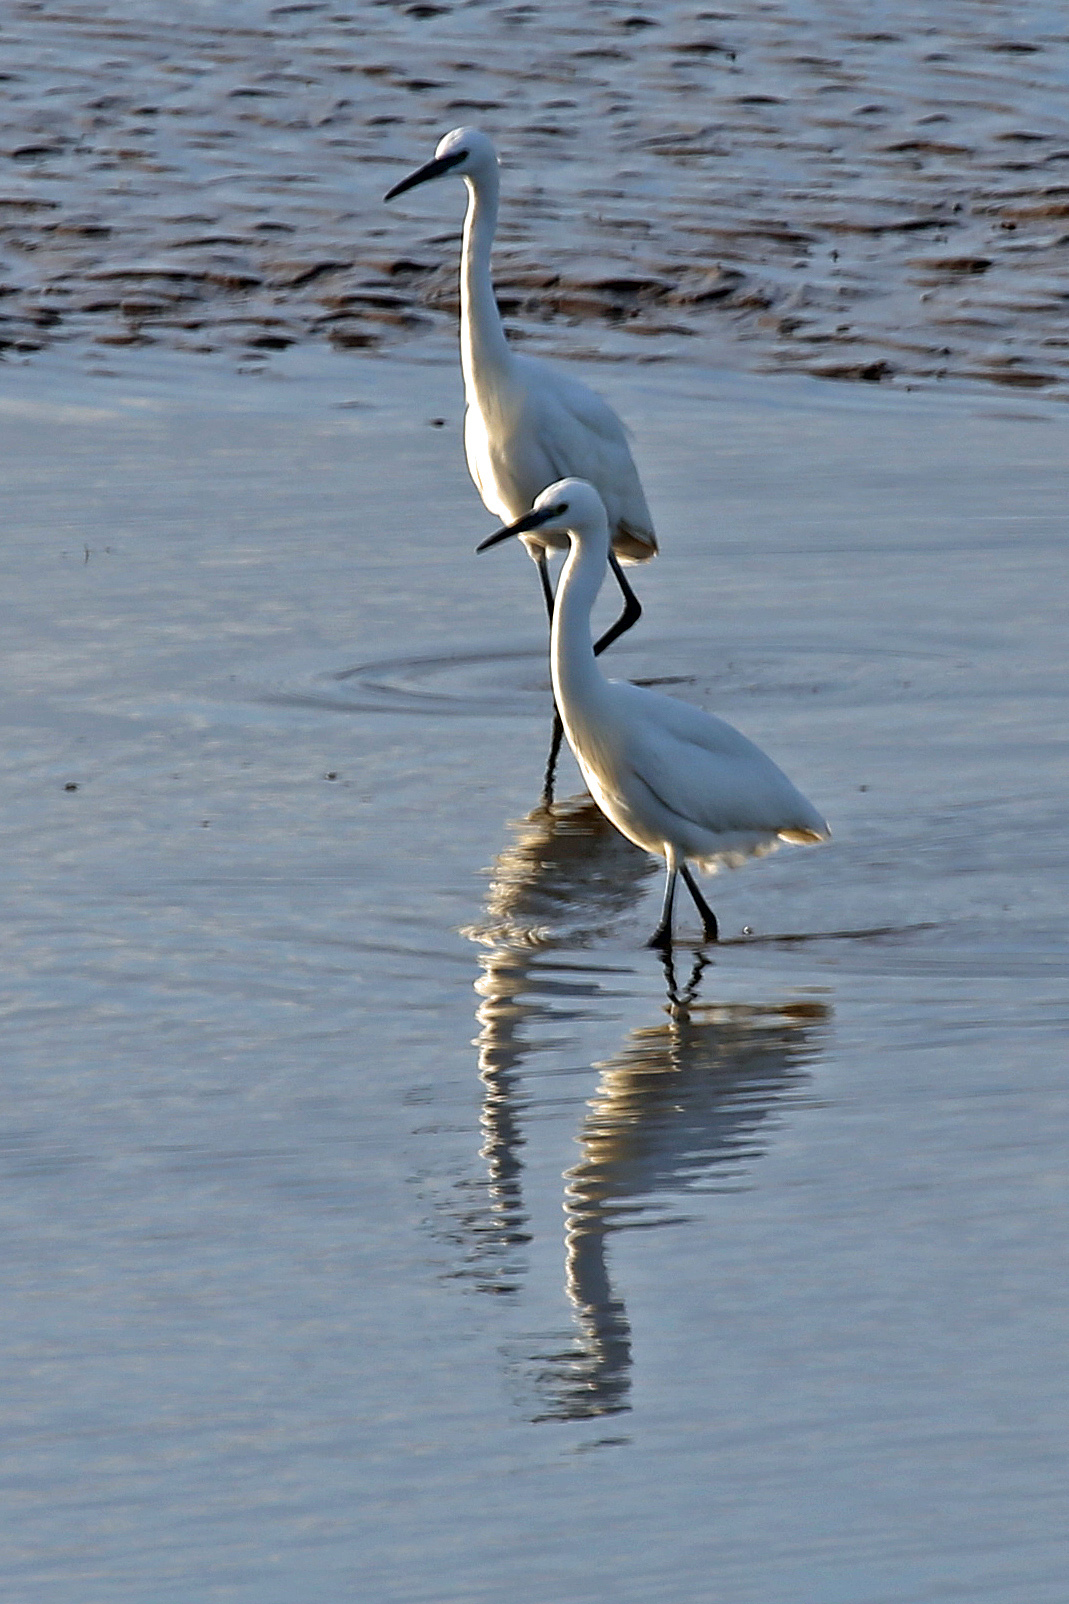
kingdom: Animalia
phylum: Chordata
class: Aves
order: Pelecaniformes
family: Ardeidae
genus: Egretta
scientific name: Egretta garzetta
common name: Little egret
